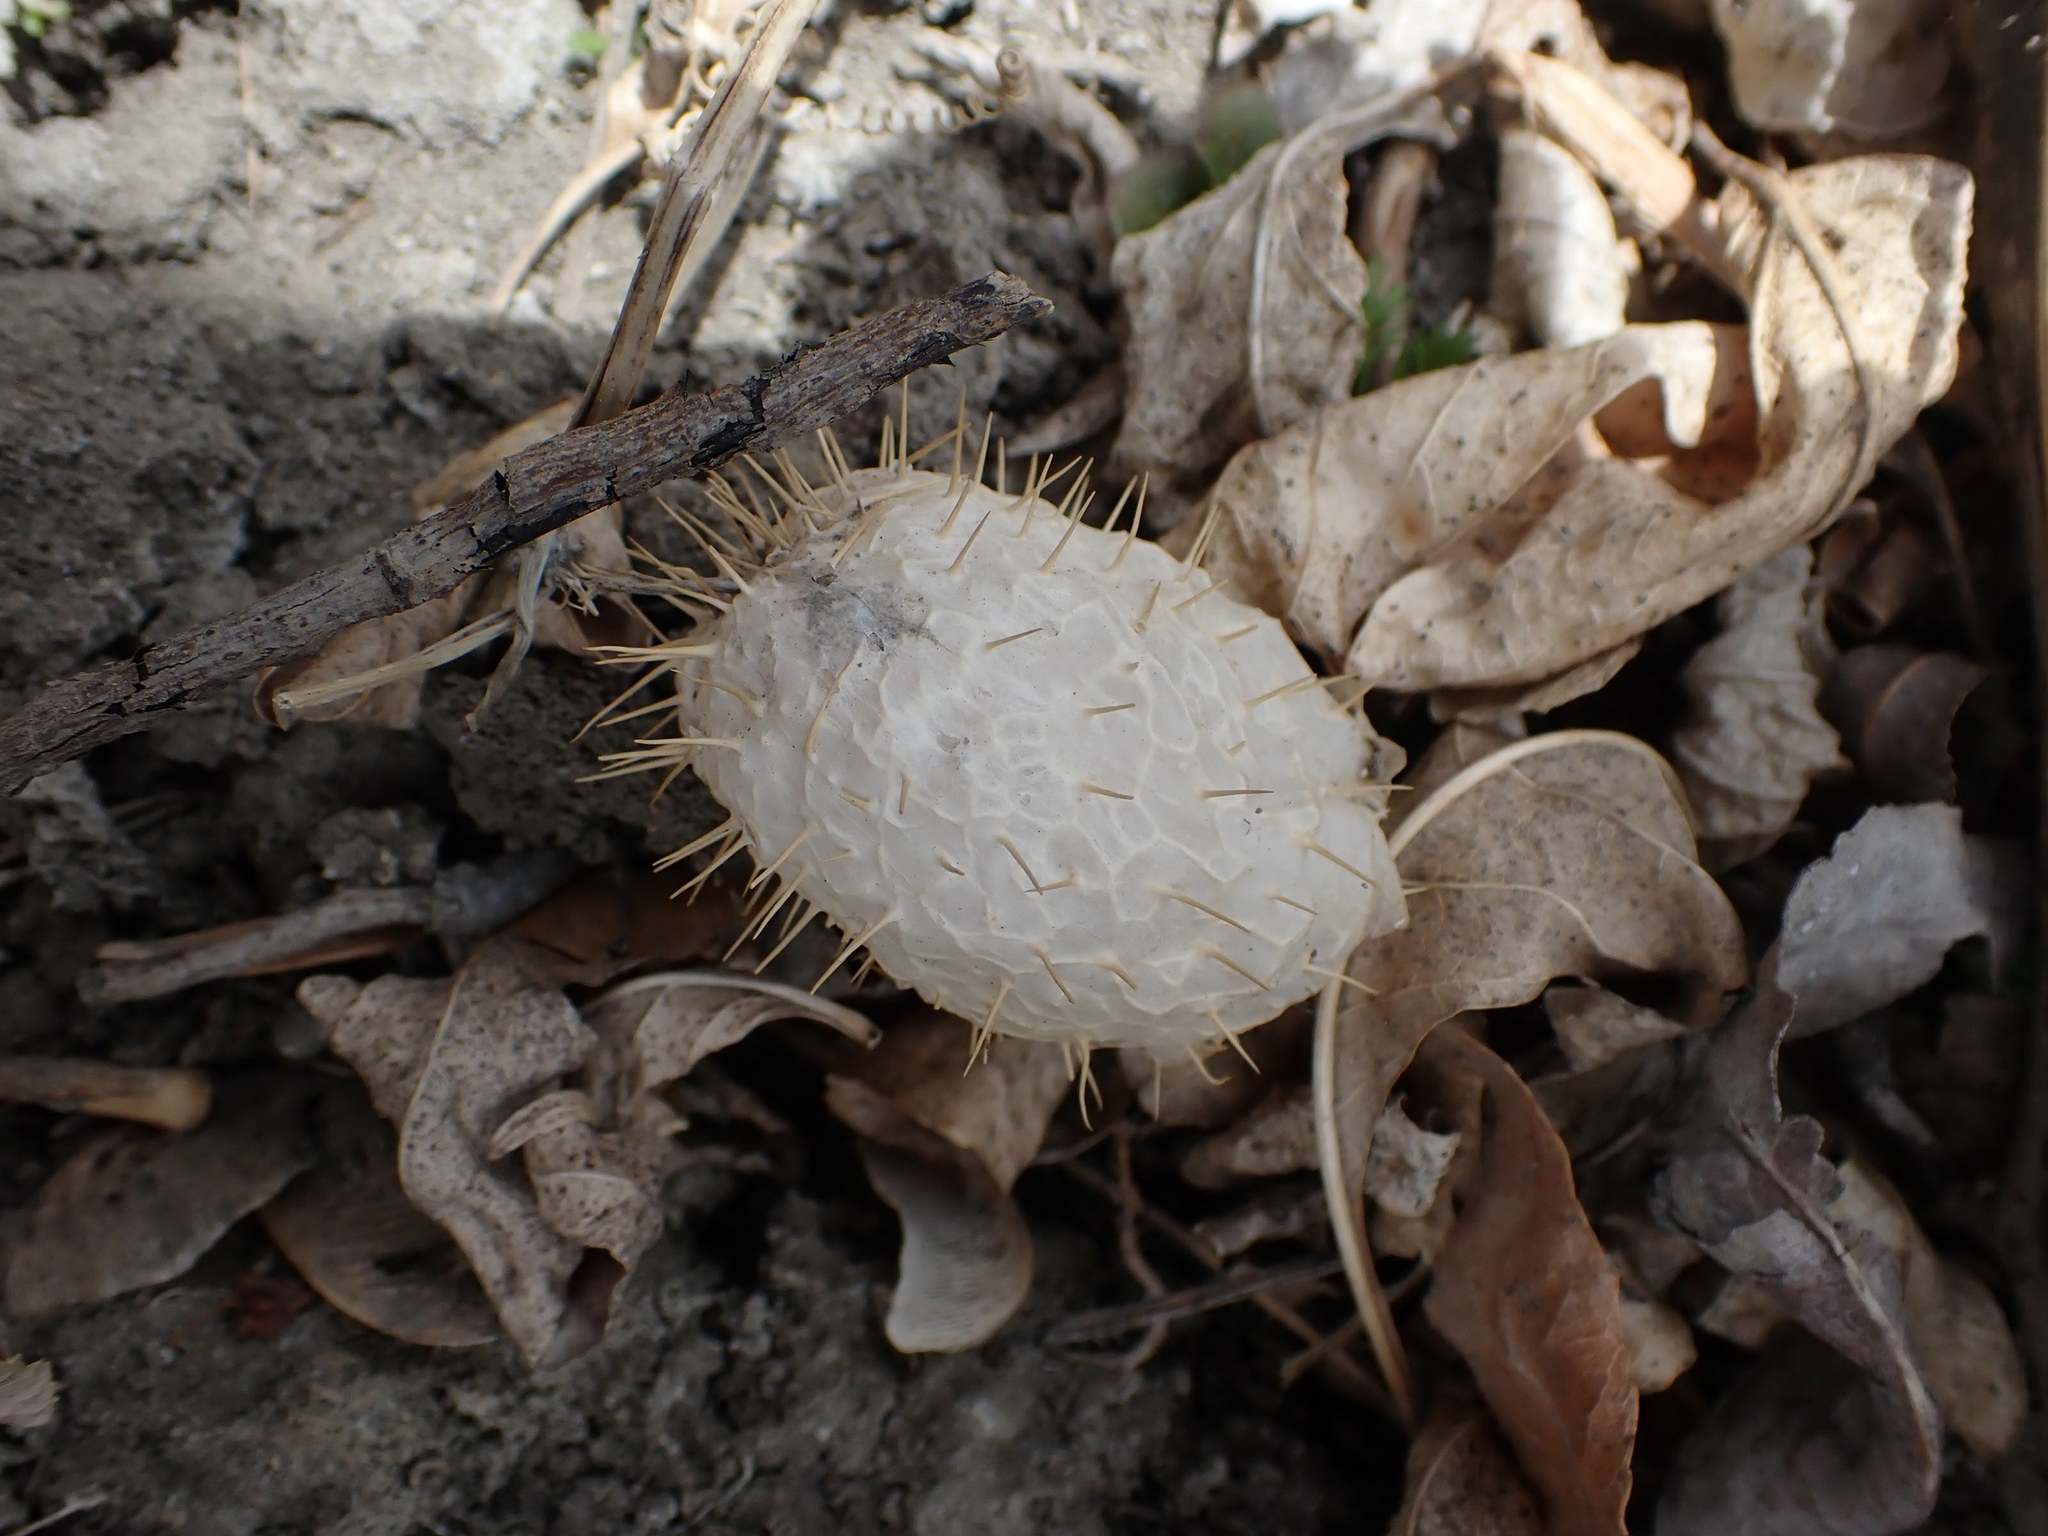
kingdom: Plantae
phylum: Tracheophyta
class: Magnoliopsida
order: Cucurbitales
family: Cucurbitaceae
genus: Echinocystis
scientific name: Echinocystis lobata
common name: Wild cucumber
